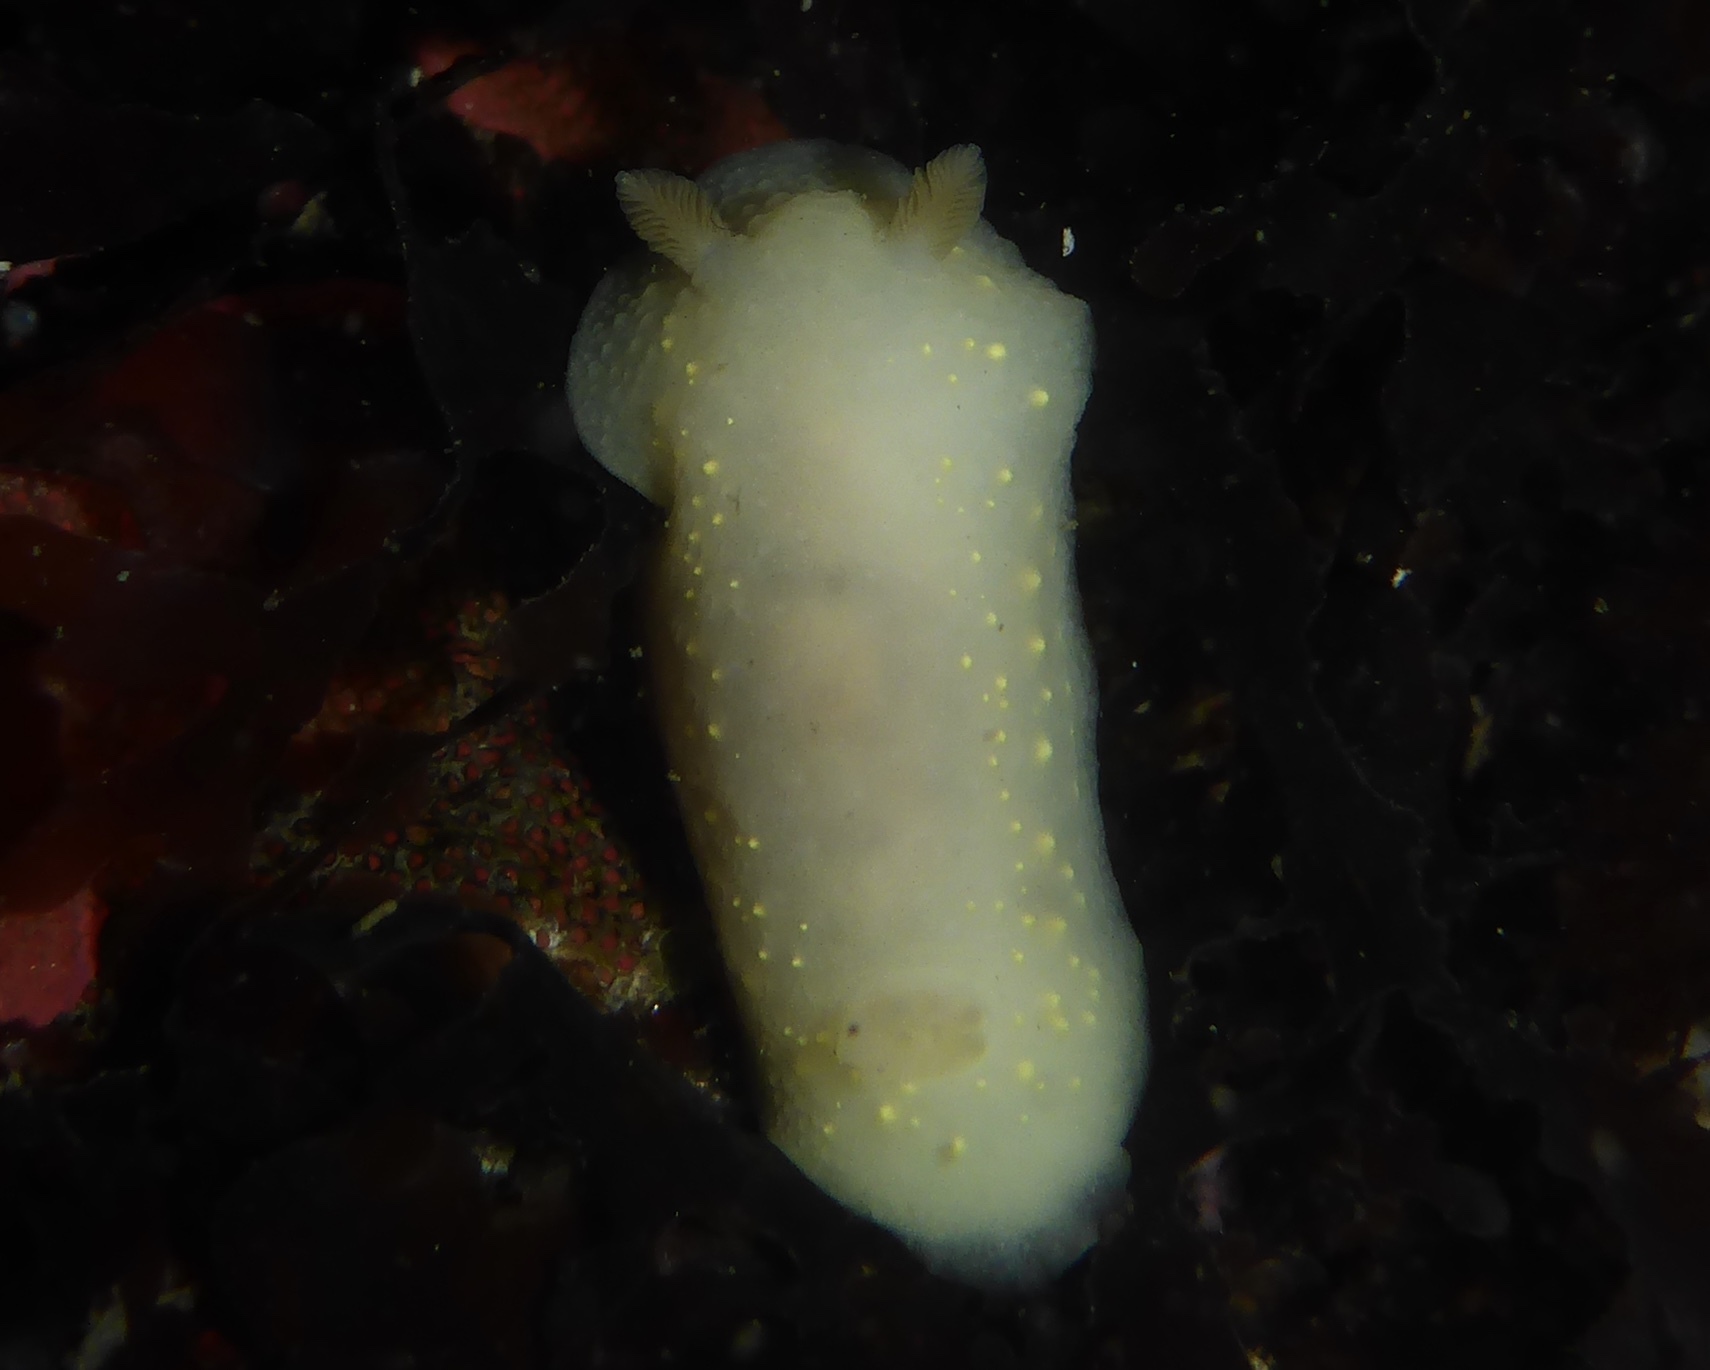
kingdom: Animalia
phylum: Mollusca
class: Gastropoda
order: Nudibranchia
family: Cadlinidae
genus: Cadlina
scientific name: Cadlina modesta
